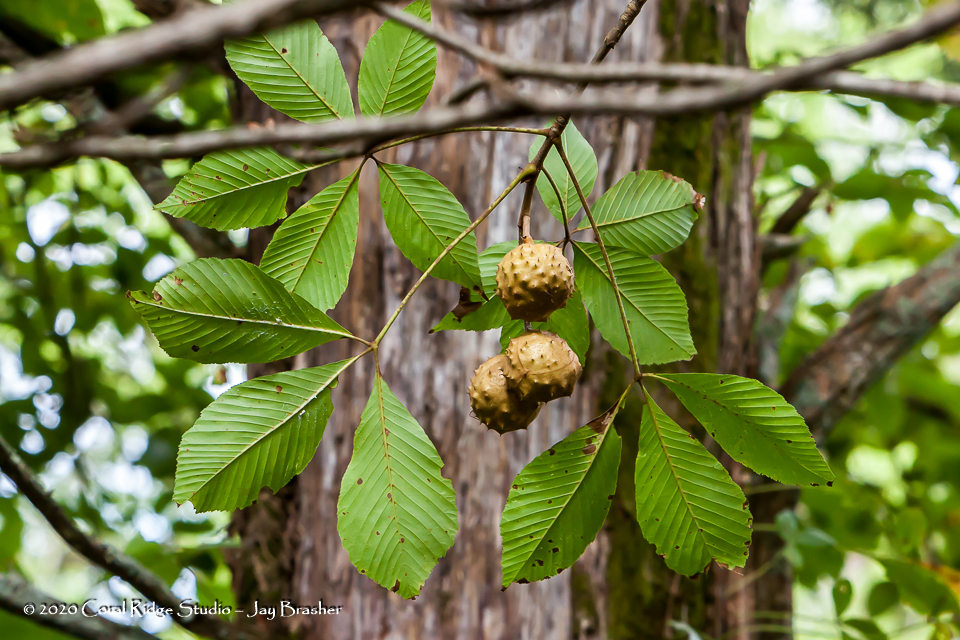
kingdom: Plantae
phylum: Tracheophyta
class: Magnoliopsida
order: Sapindales
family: Sapindaceae
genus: Aesculus
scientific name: Aesculus glabra
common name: Ohio buckeye
